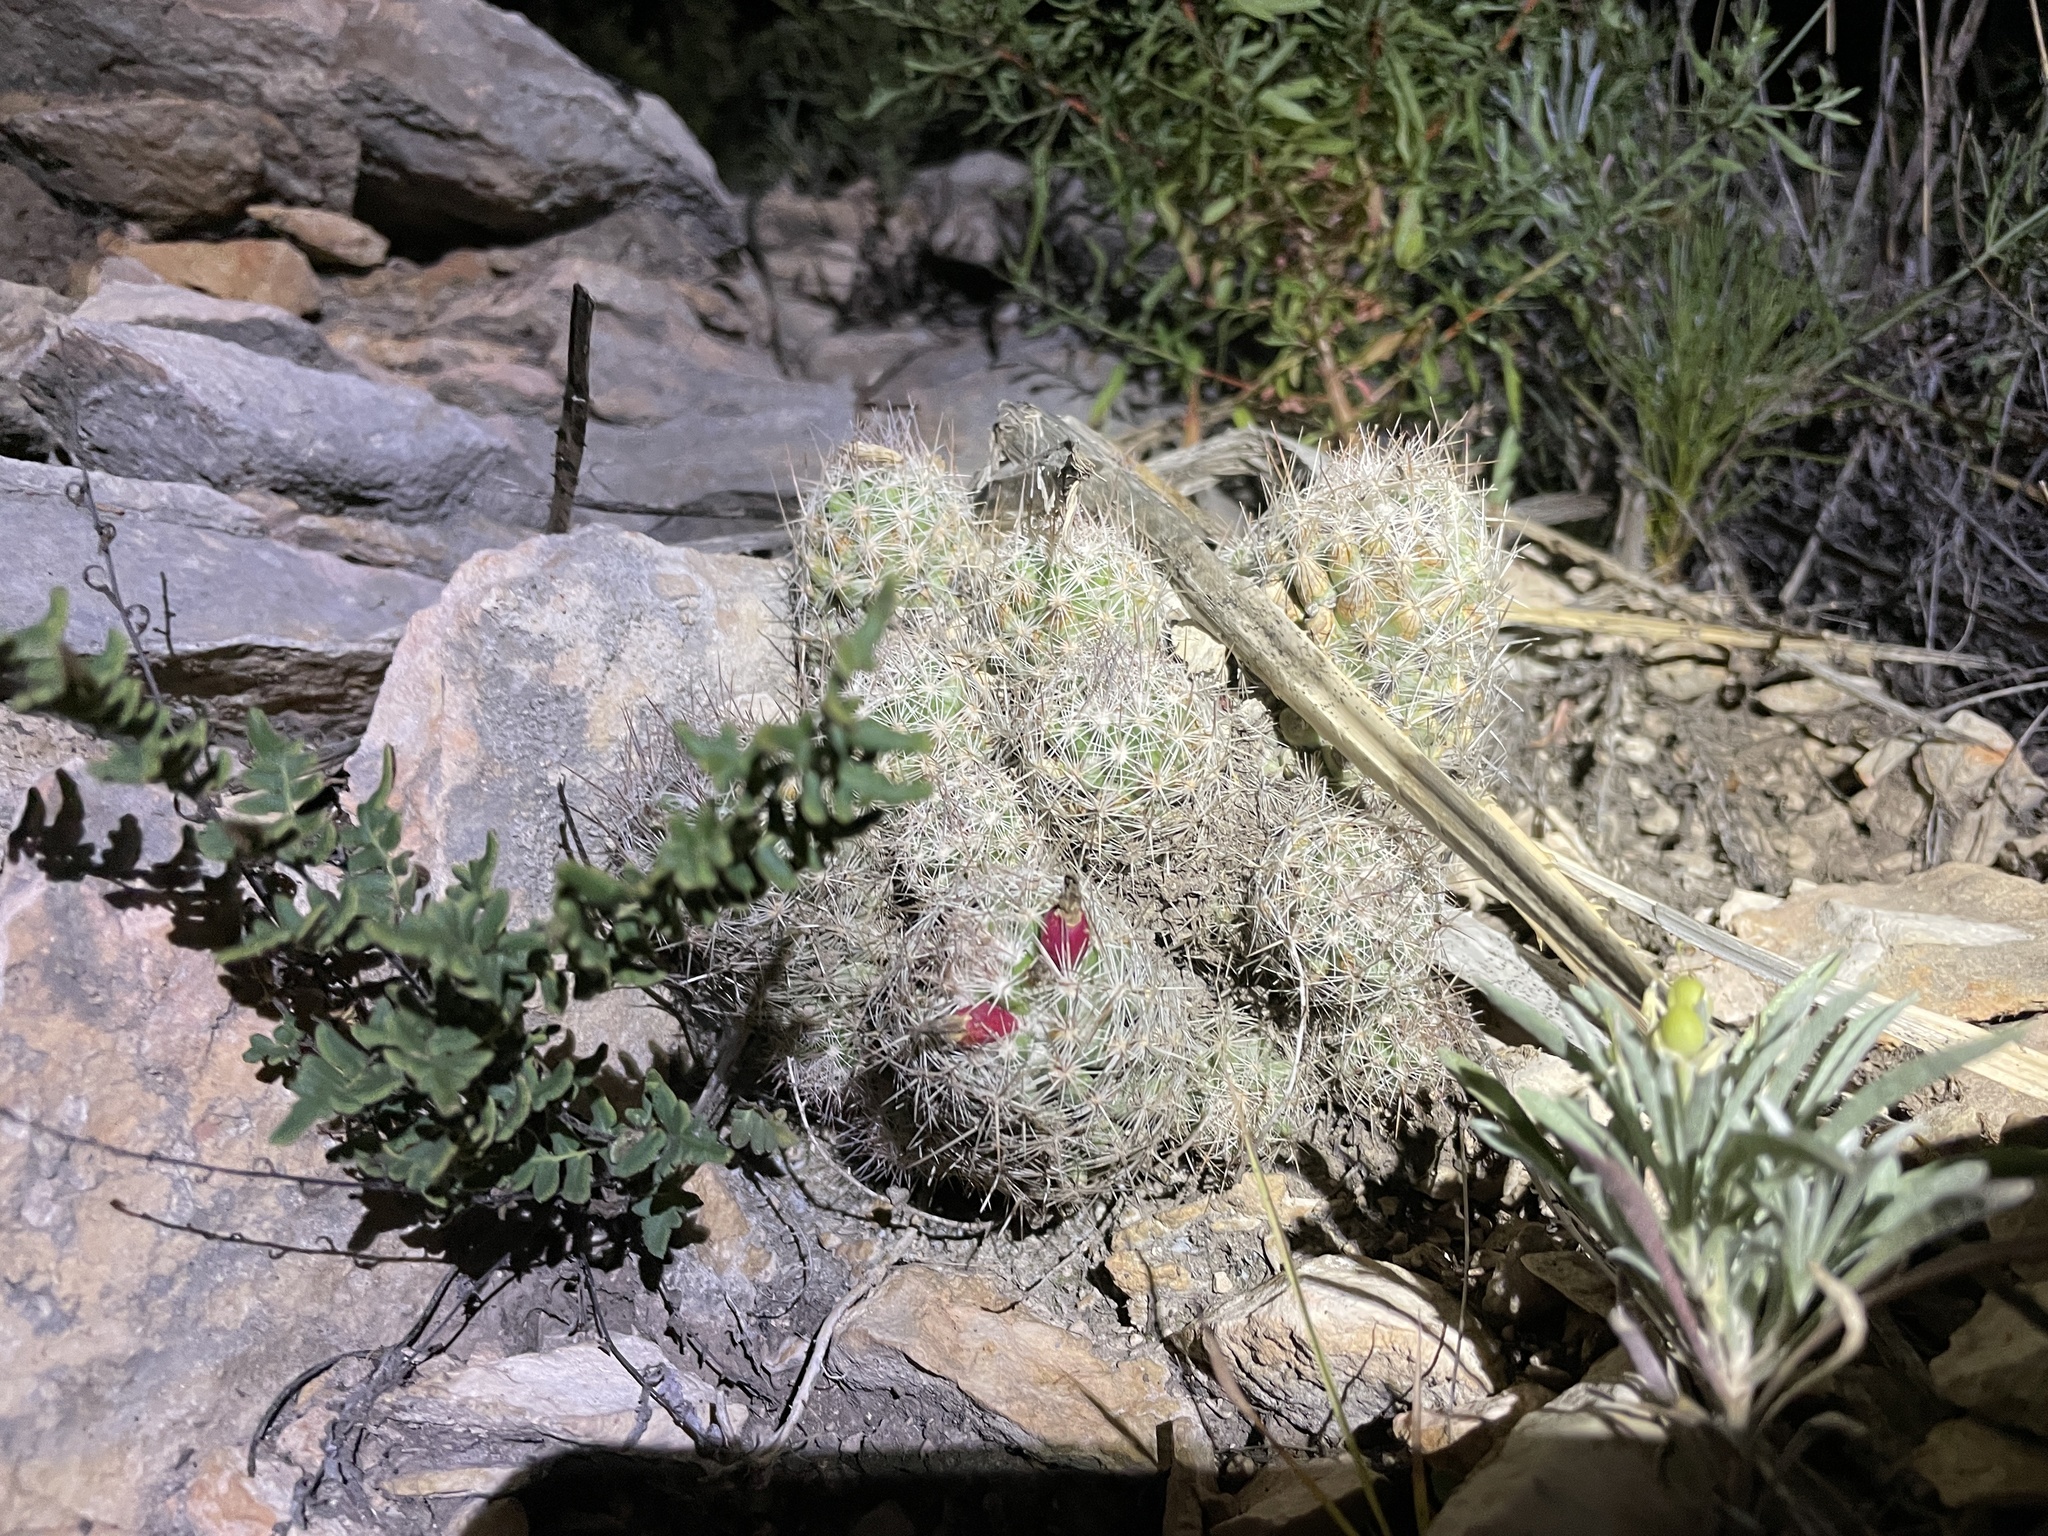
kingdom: Plantae
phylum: Tracheophyta
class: Magnoliopsida
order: Caryophyllales
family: Cactaceae
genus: Pelecyphora
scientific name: Pelecyphora tuberculosa
